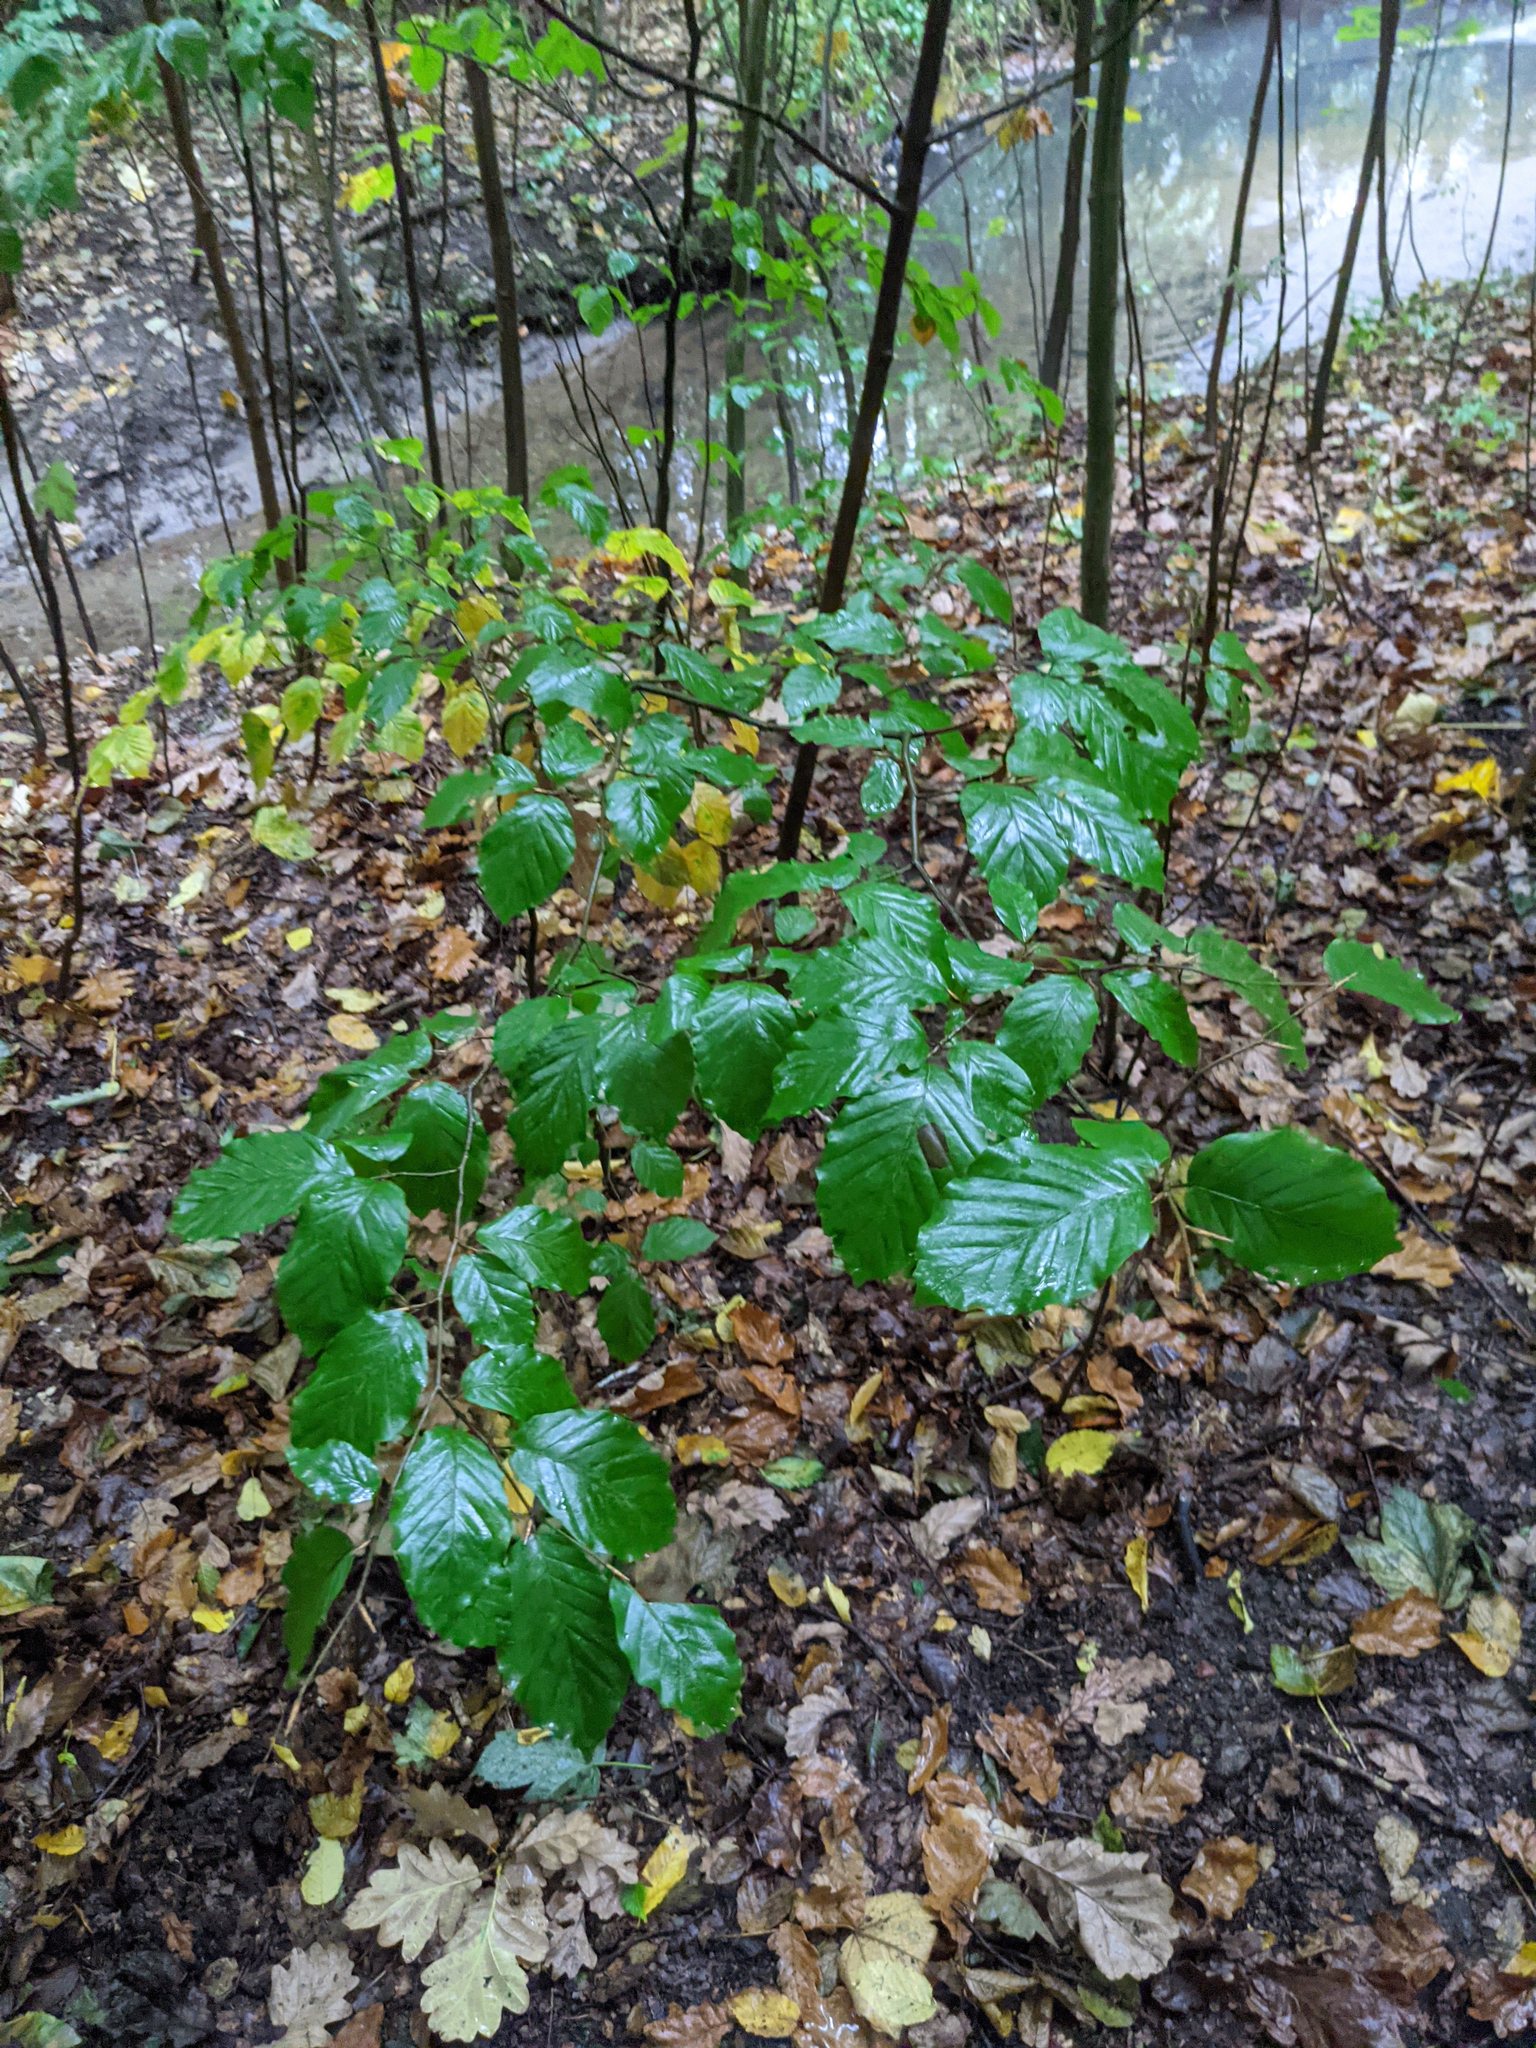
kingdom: Plantae
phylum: Tracheophyta
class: Magnoliopsida
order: Fagales
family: Fagaceae
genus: Fagus
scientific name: Fagus sylvatica
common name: Beech
